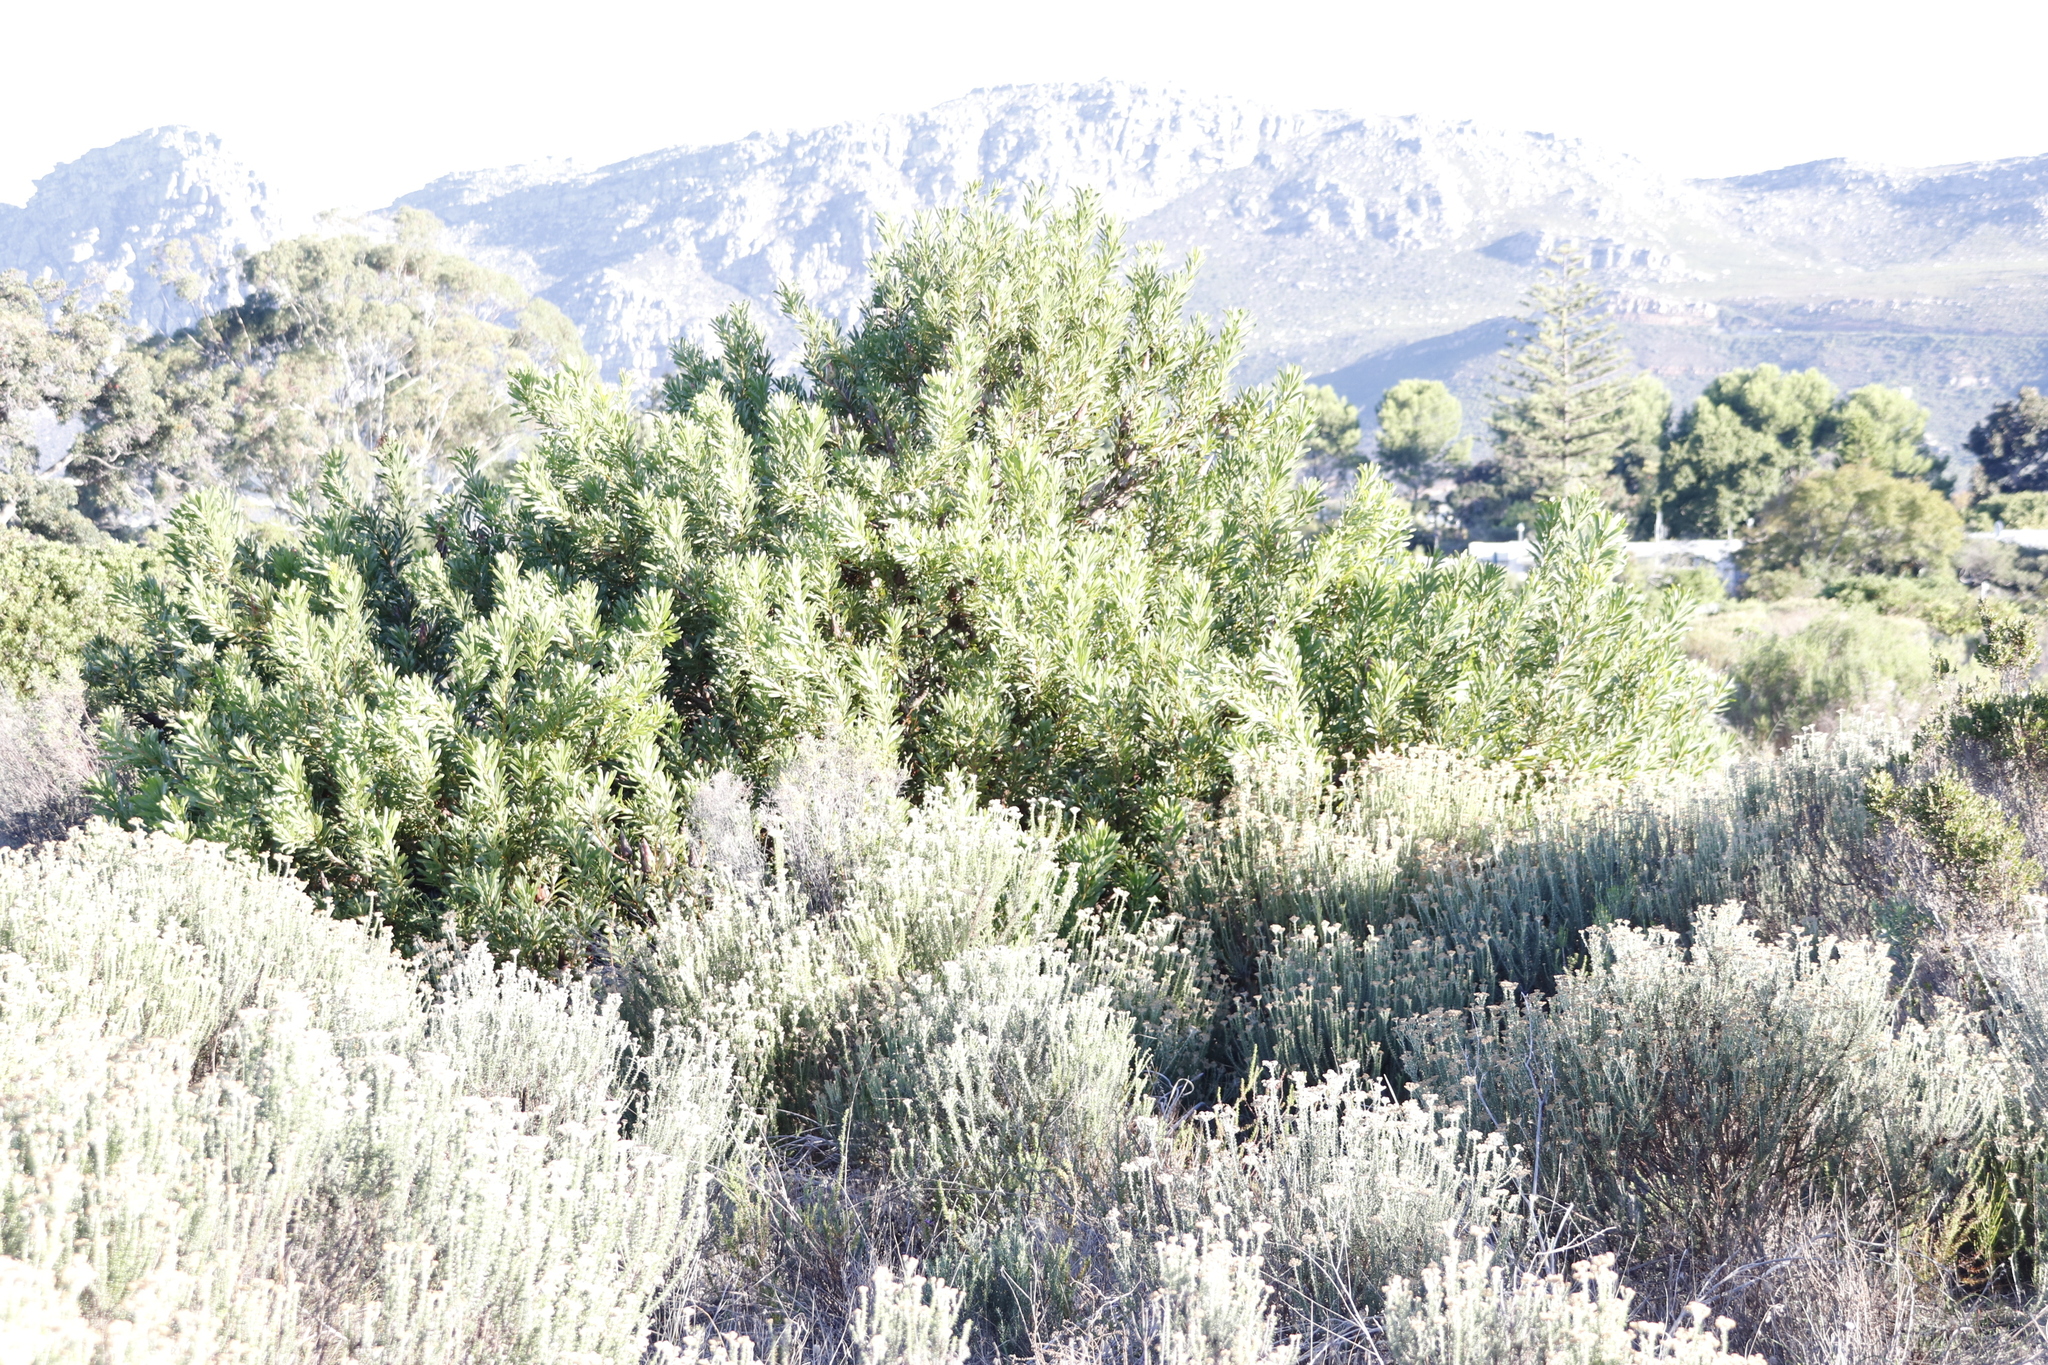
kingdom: Plantae
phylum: Tracheophyta
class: Magnoliopsida
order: Proteales
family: Proteaceae
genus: Protea
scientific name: Protea repens
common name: Sugarbush
